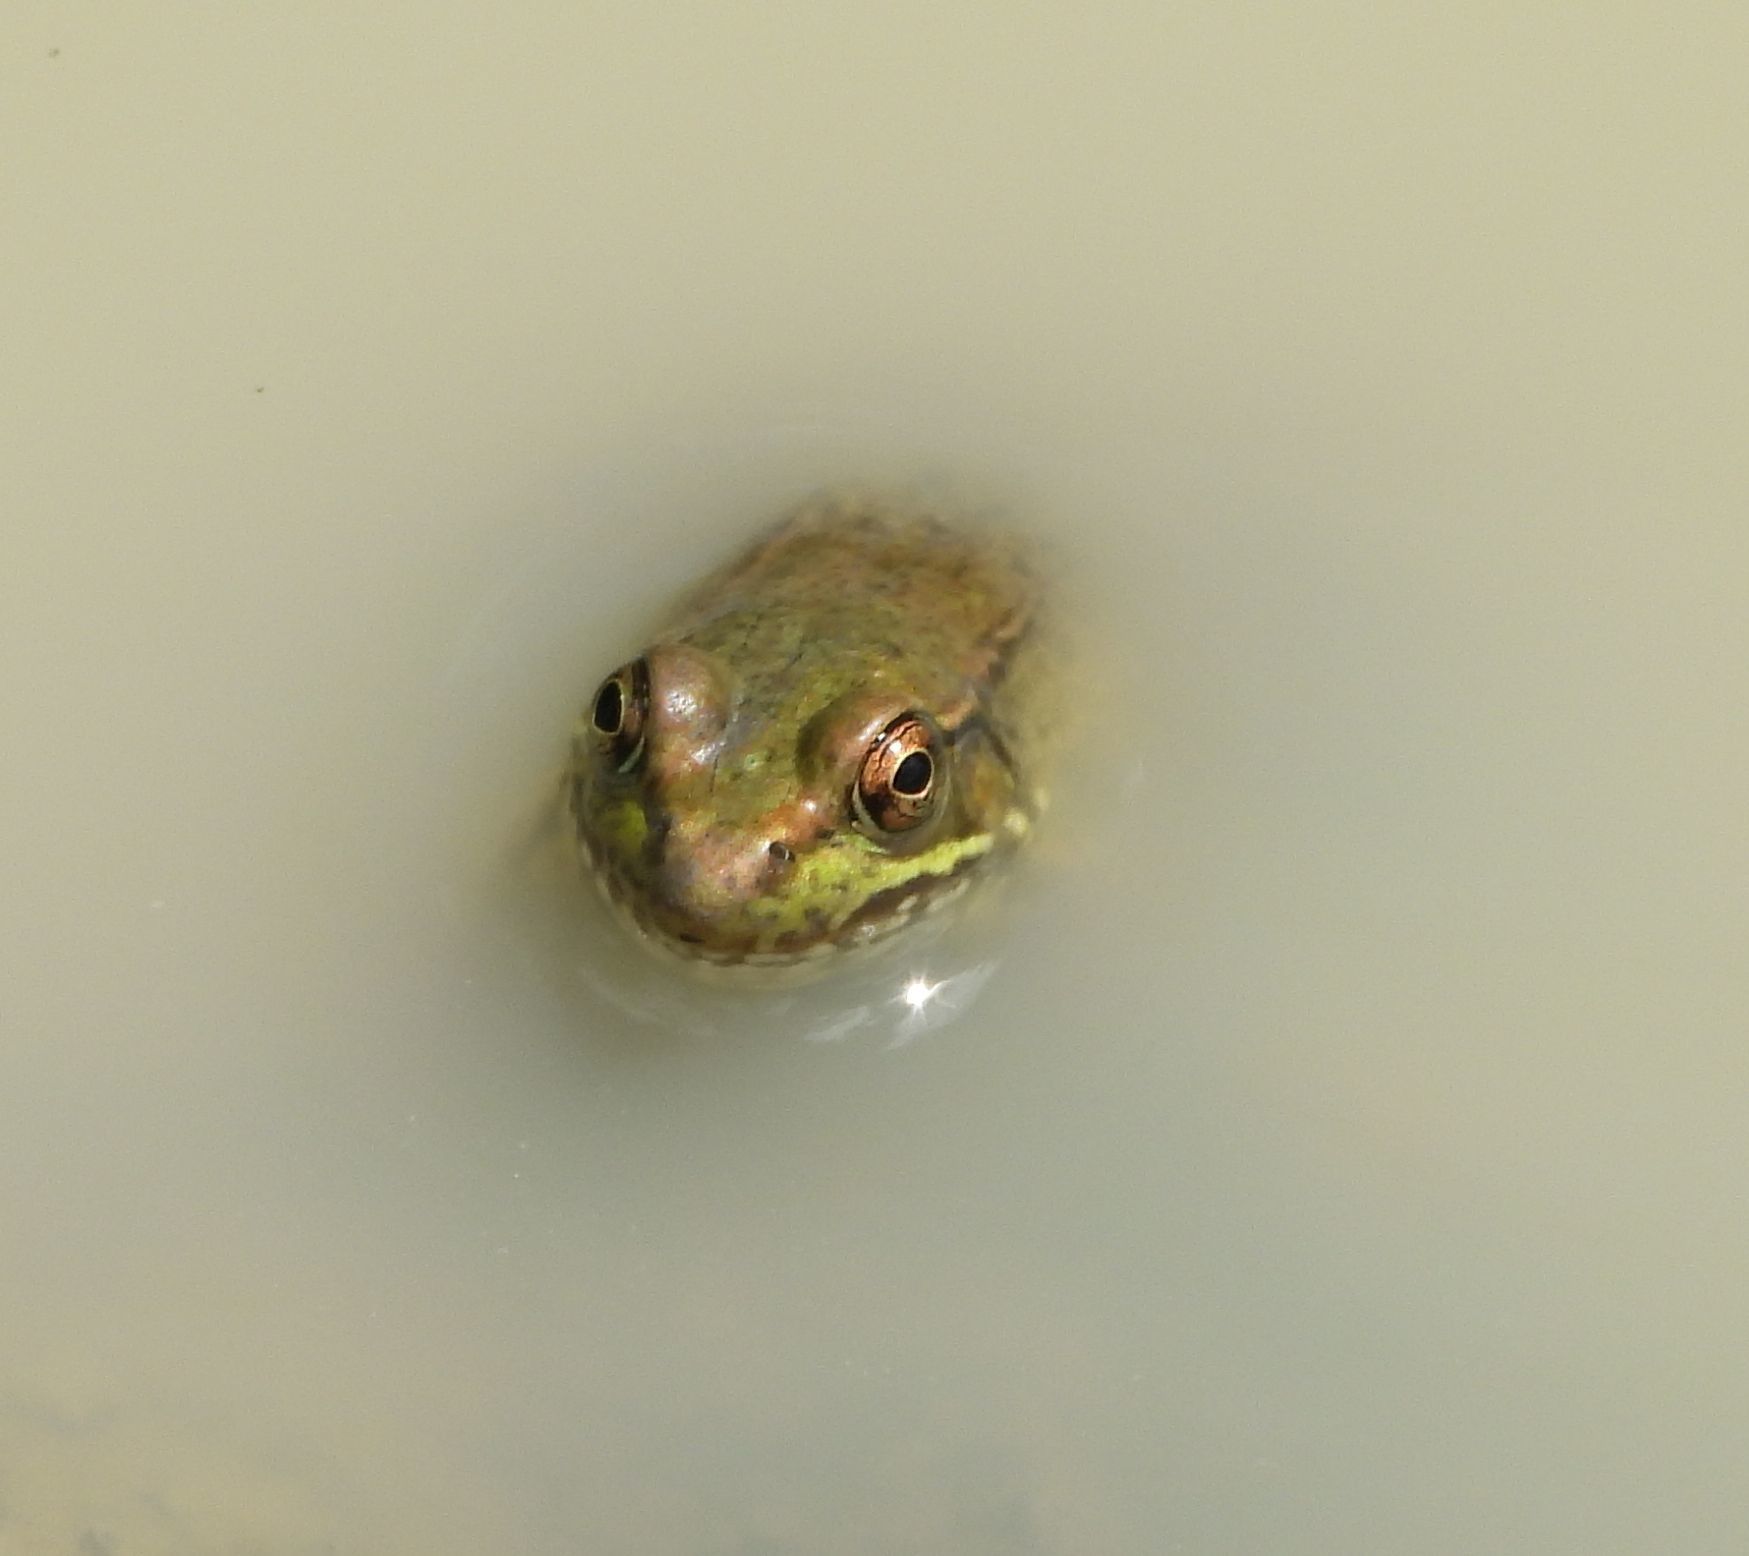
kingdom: Animalia
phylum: Chordata
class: Amphibia
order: Anura
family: Ranidae
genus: Lithobates
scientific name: Lithobates clamitans
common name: Green frog
